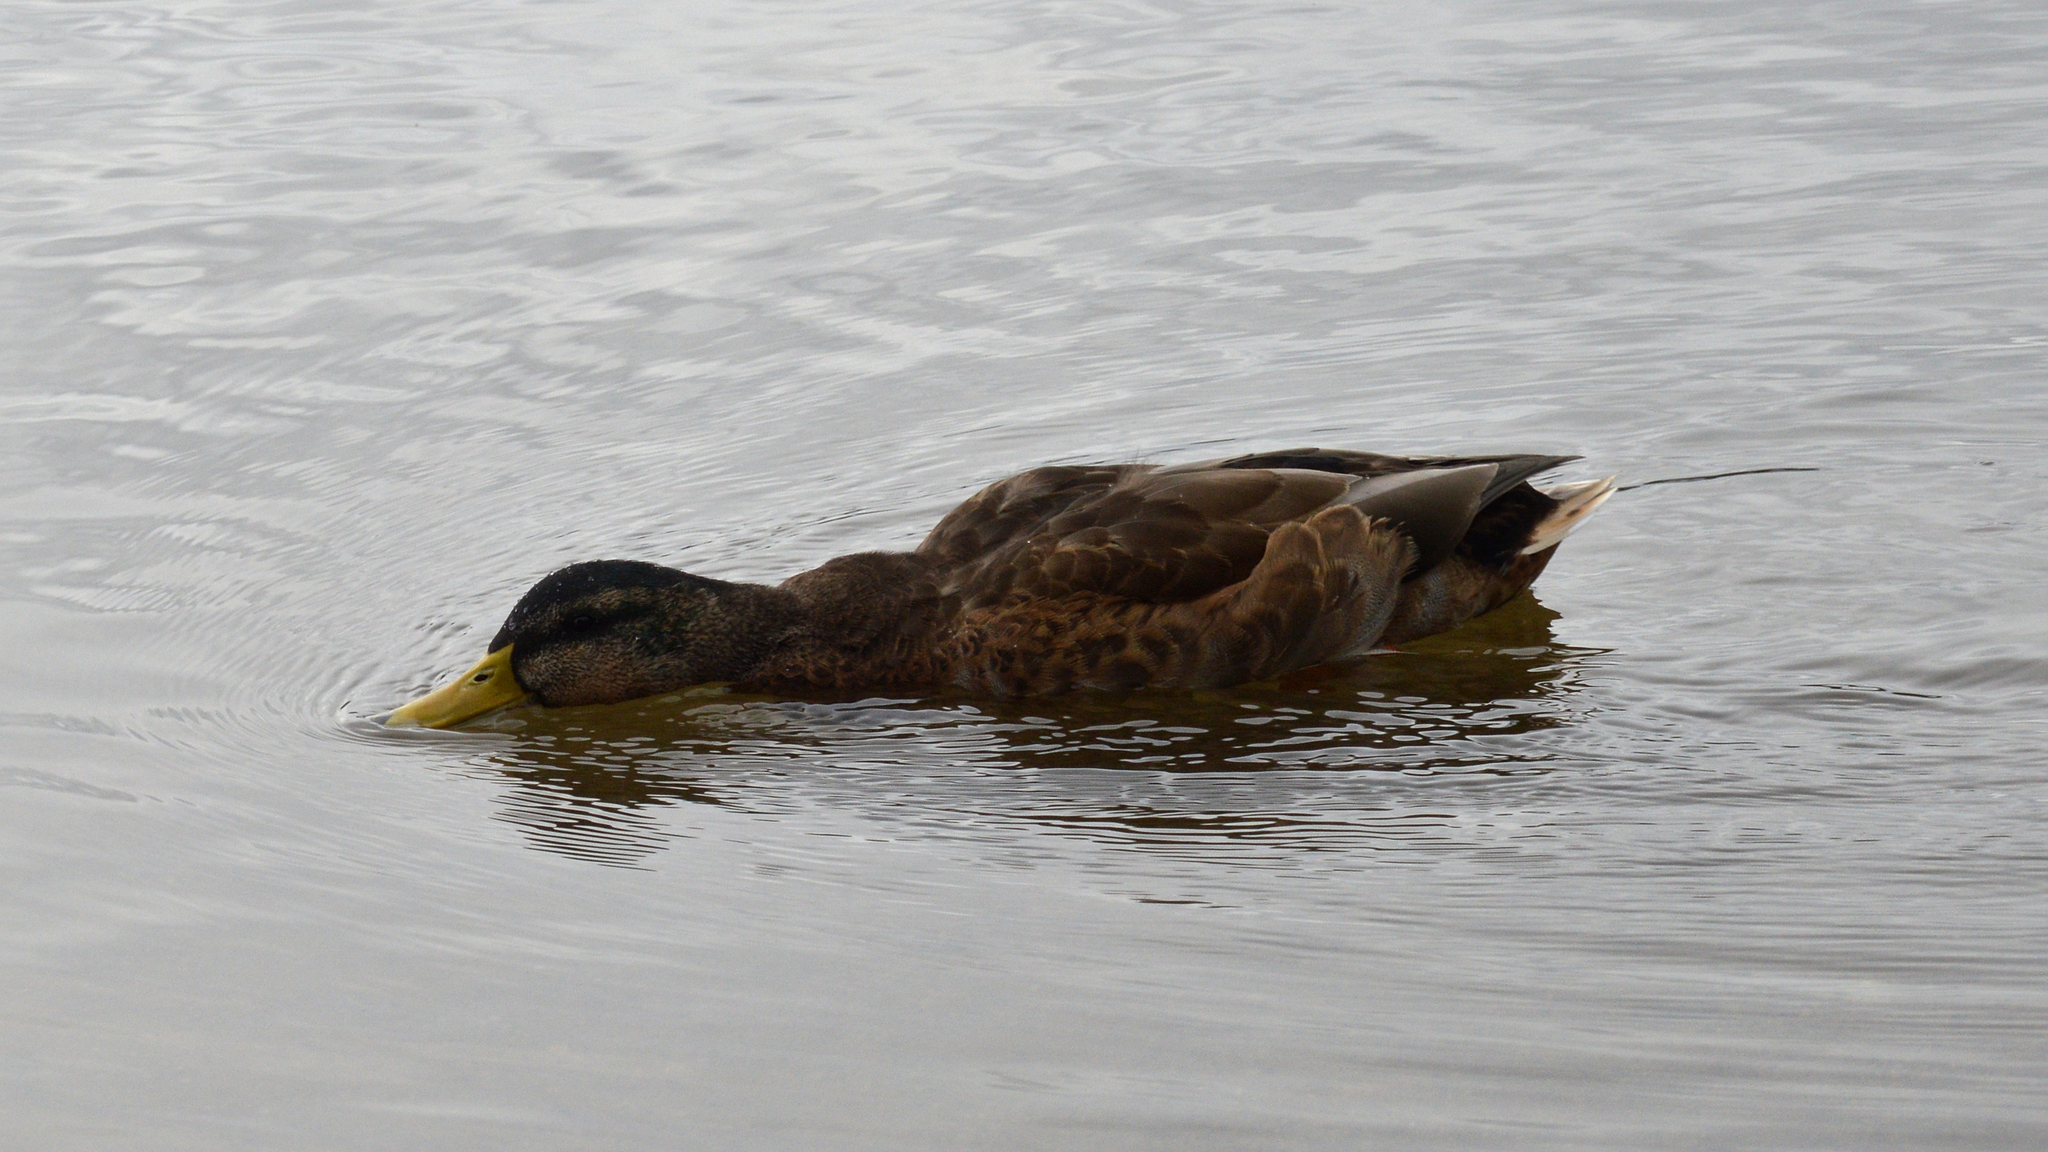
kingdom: Animalia
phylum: Chordata
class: Aves
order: Anseriformes
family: Anatidae
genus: Anas
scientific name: Anas platyrhynchos
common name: Mallard
